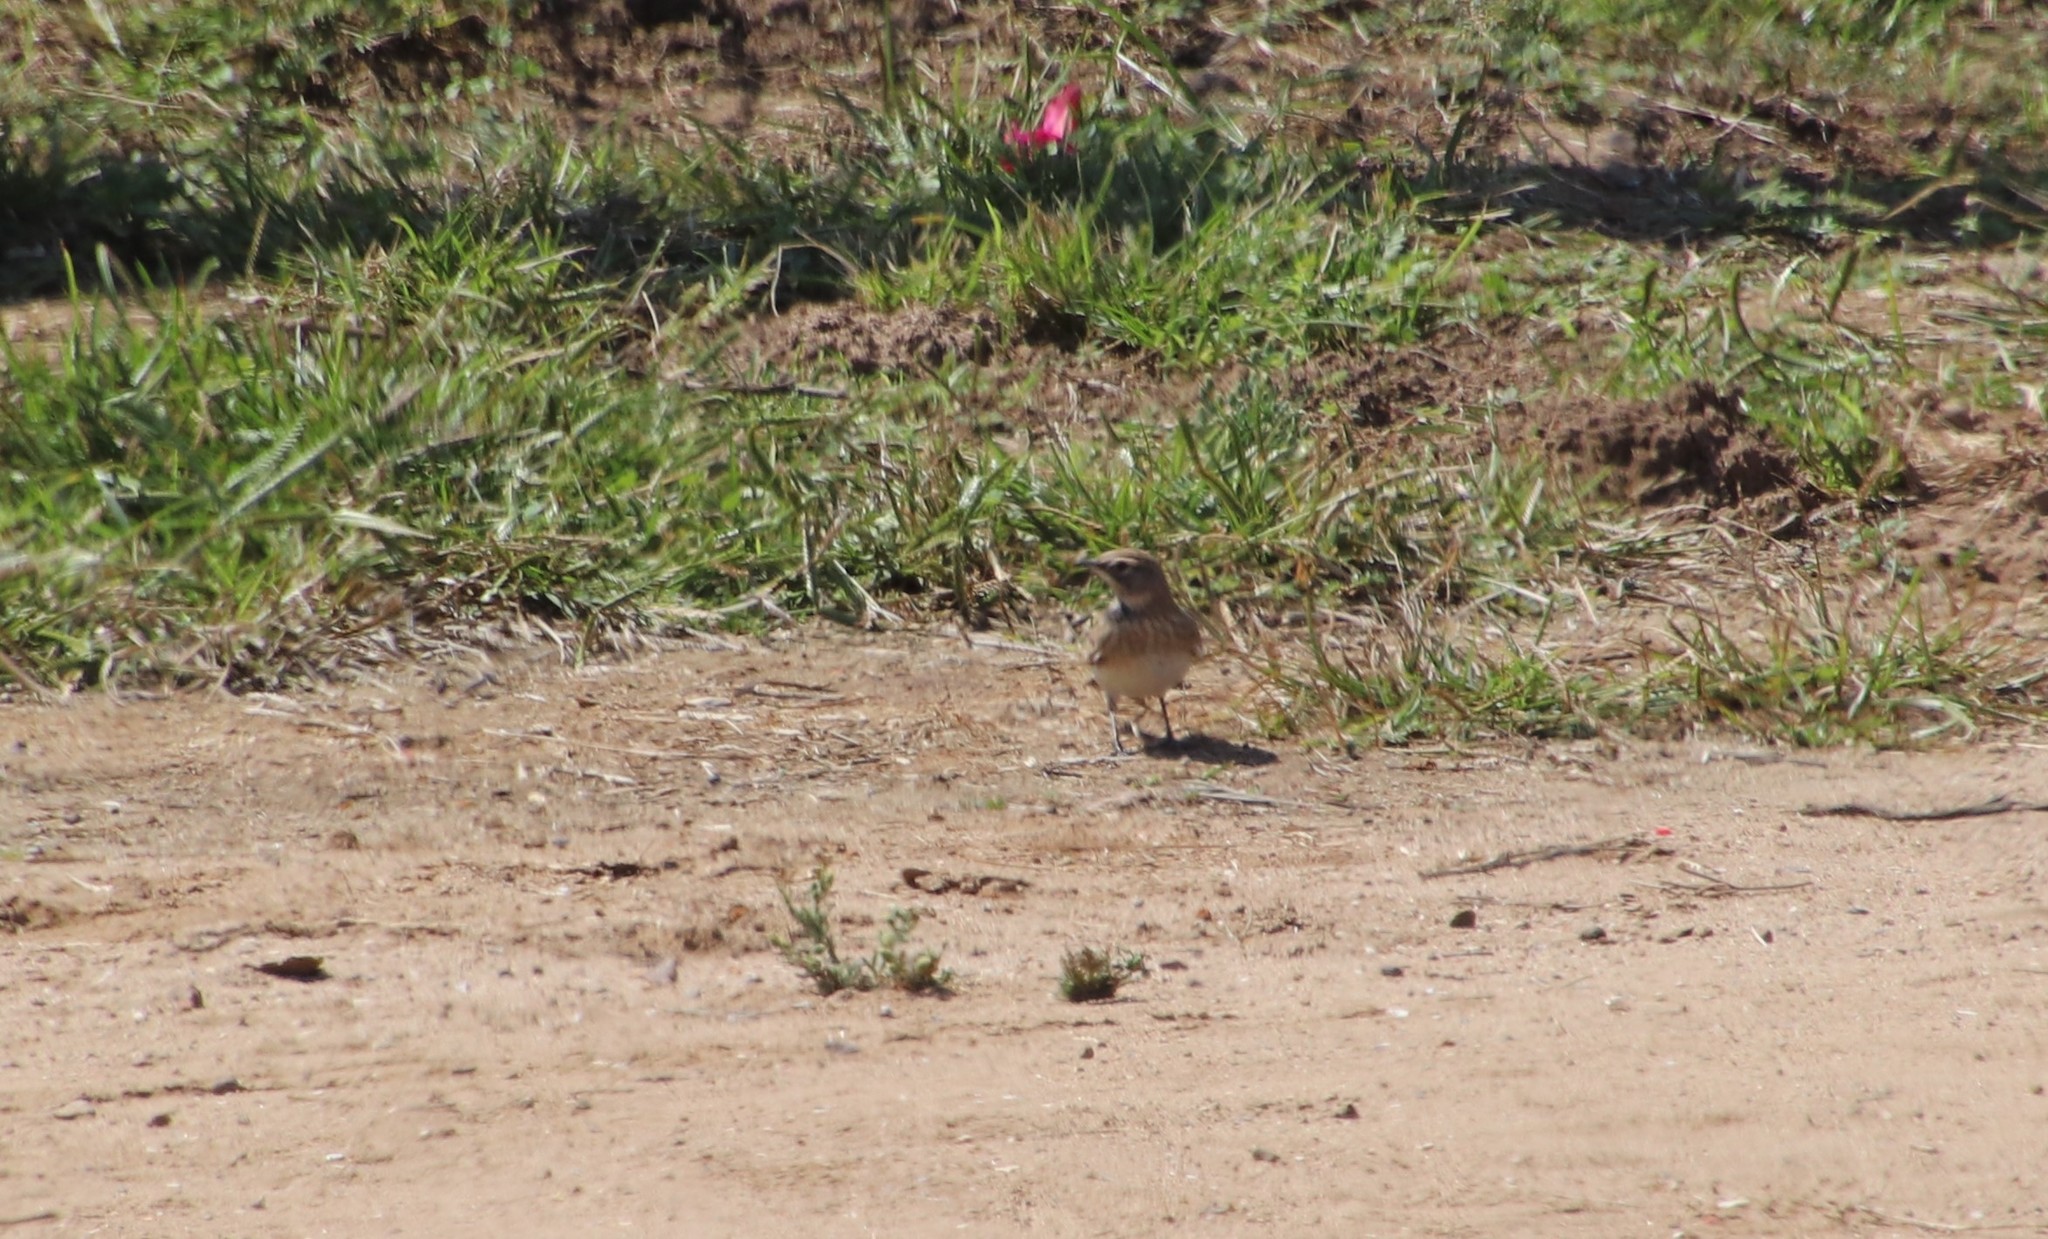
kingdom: Animalia
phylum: Chordata
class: Aves
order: Passeriformes
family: Alaudidae
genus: Eremophila
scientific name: Eremophila alpestris
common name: Horned lark
